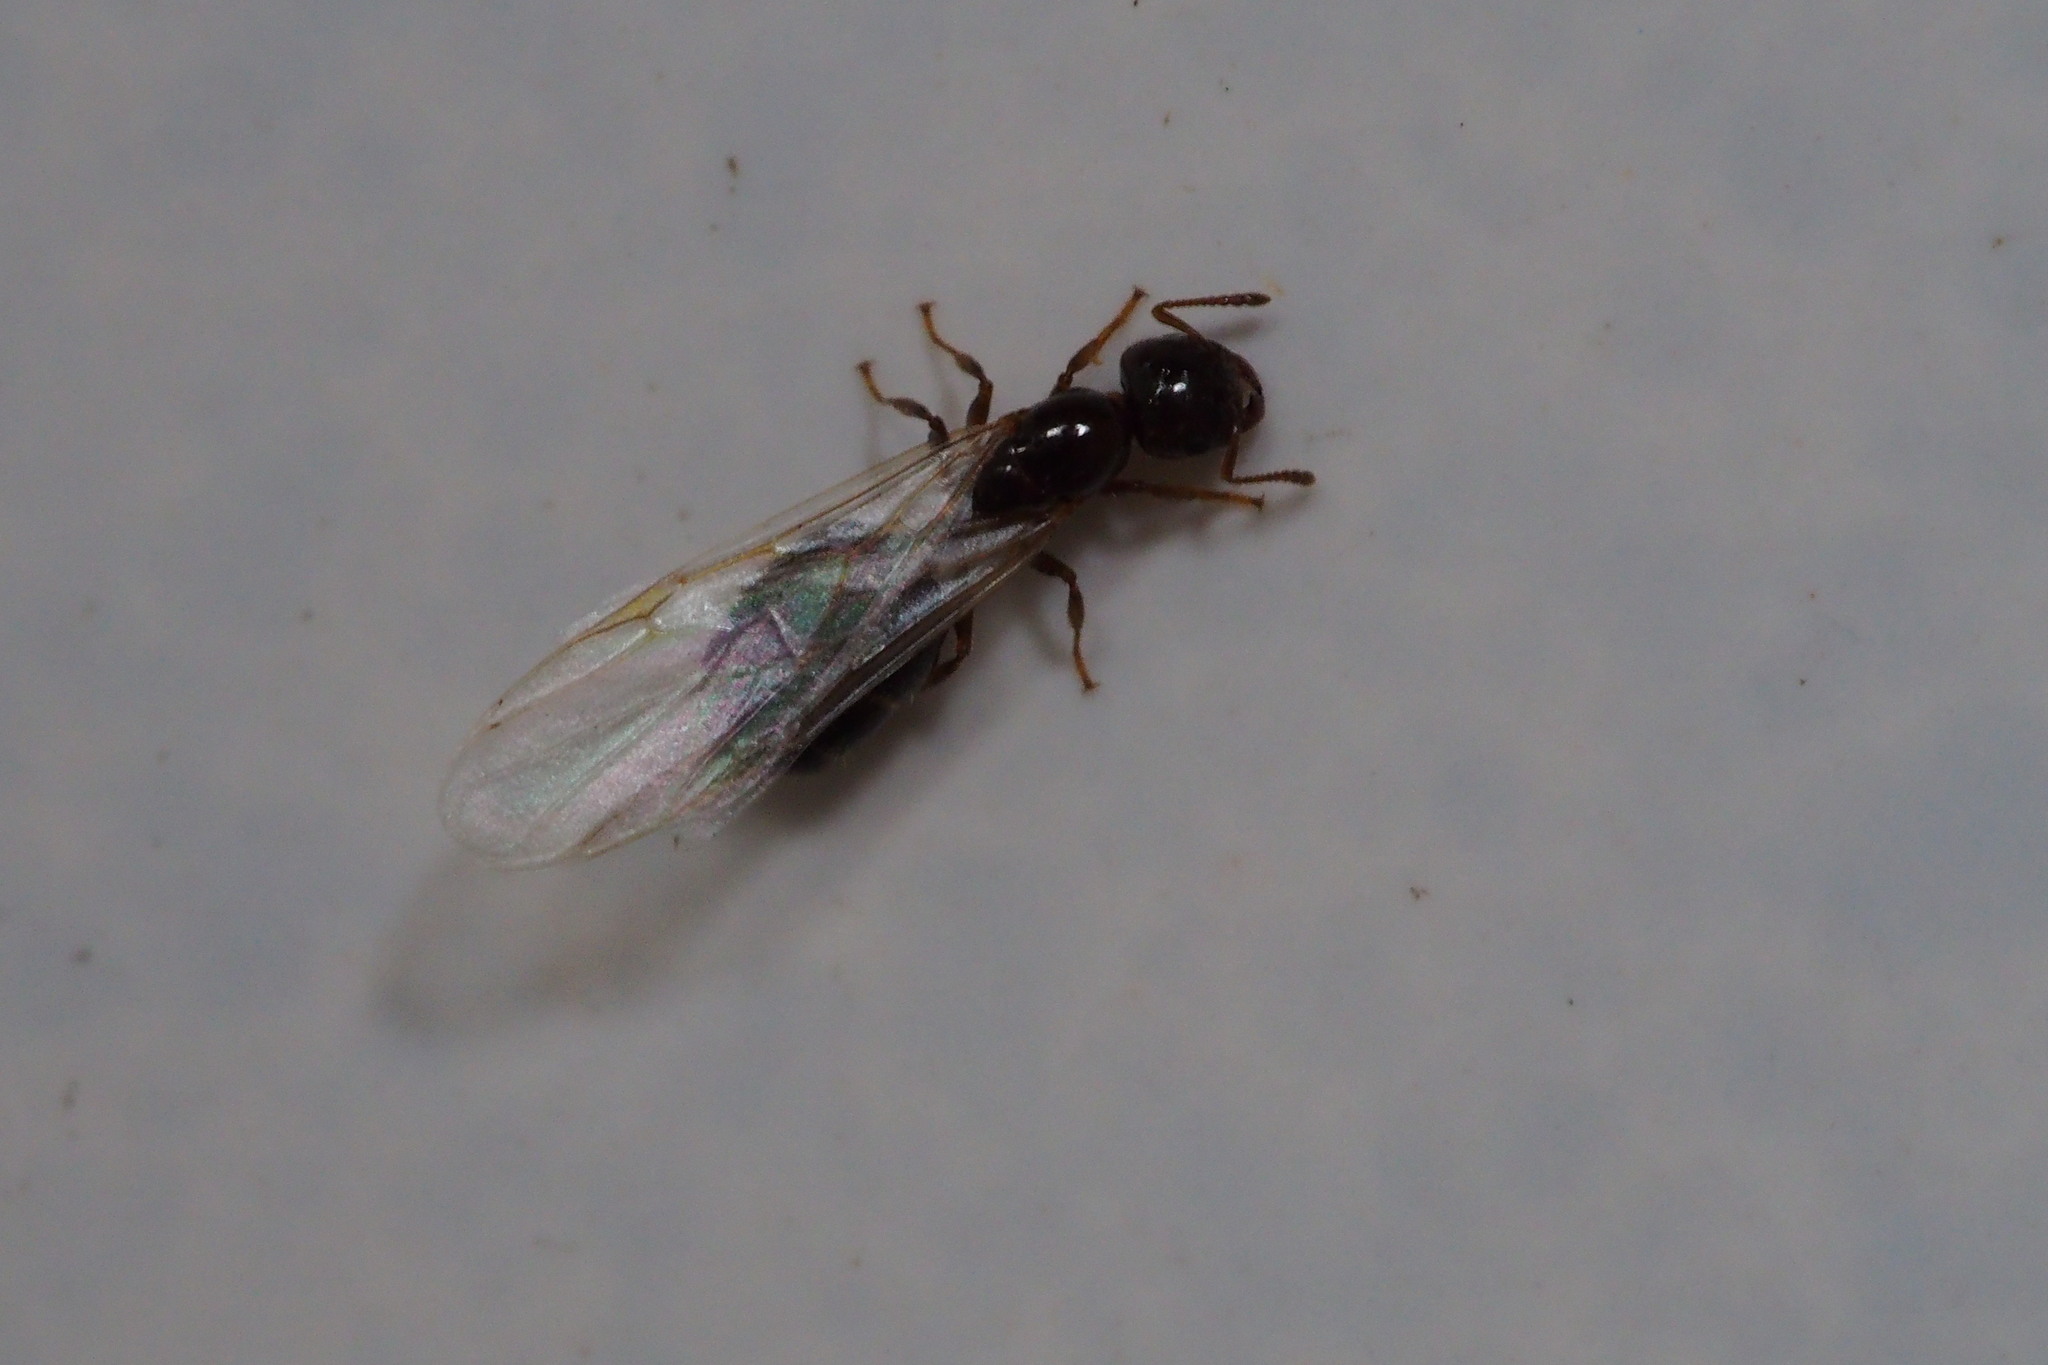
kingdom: Animalia
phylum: Arthropoda
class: Insecta
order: Hymenoptera
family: Formicidae
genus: Crematogaster
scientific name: Crematogaster teranishii
